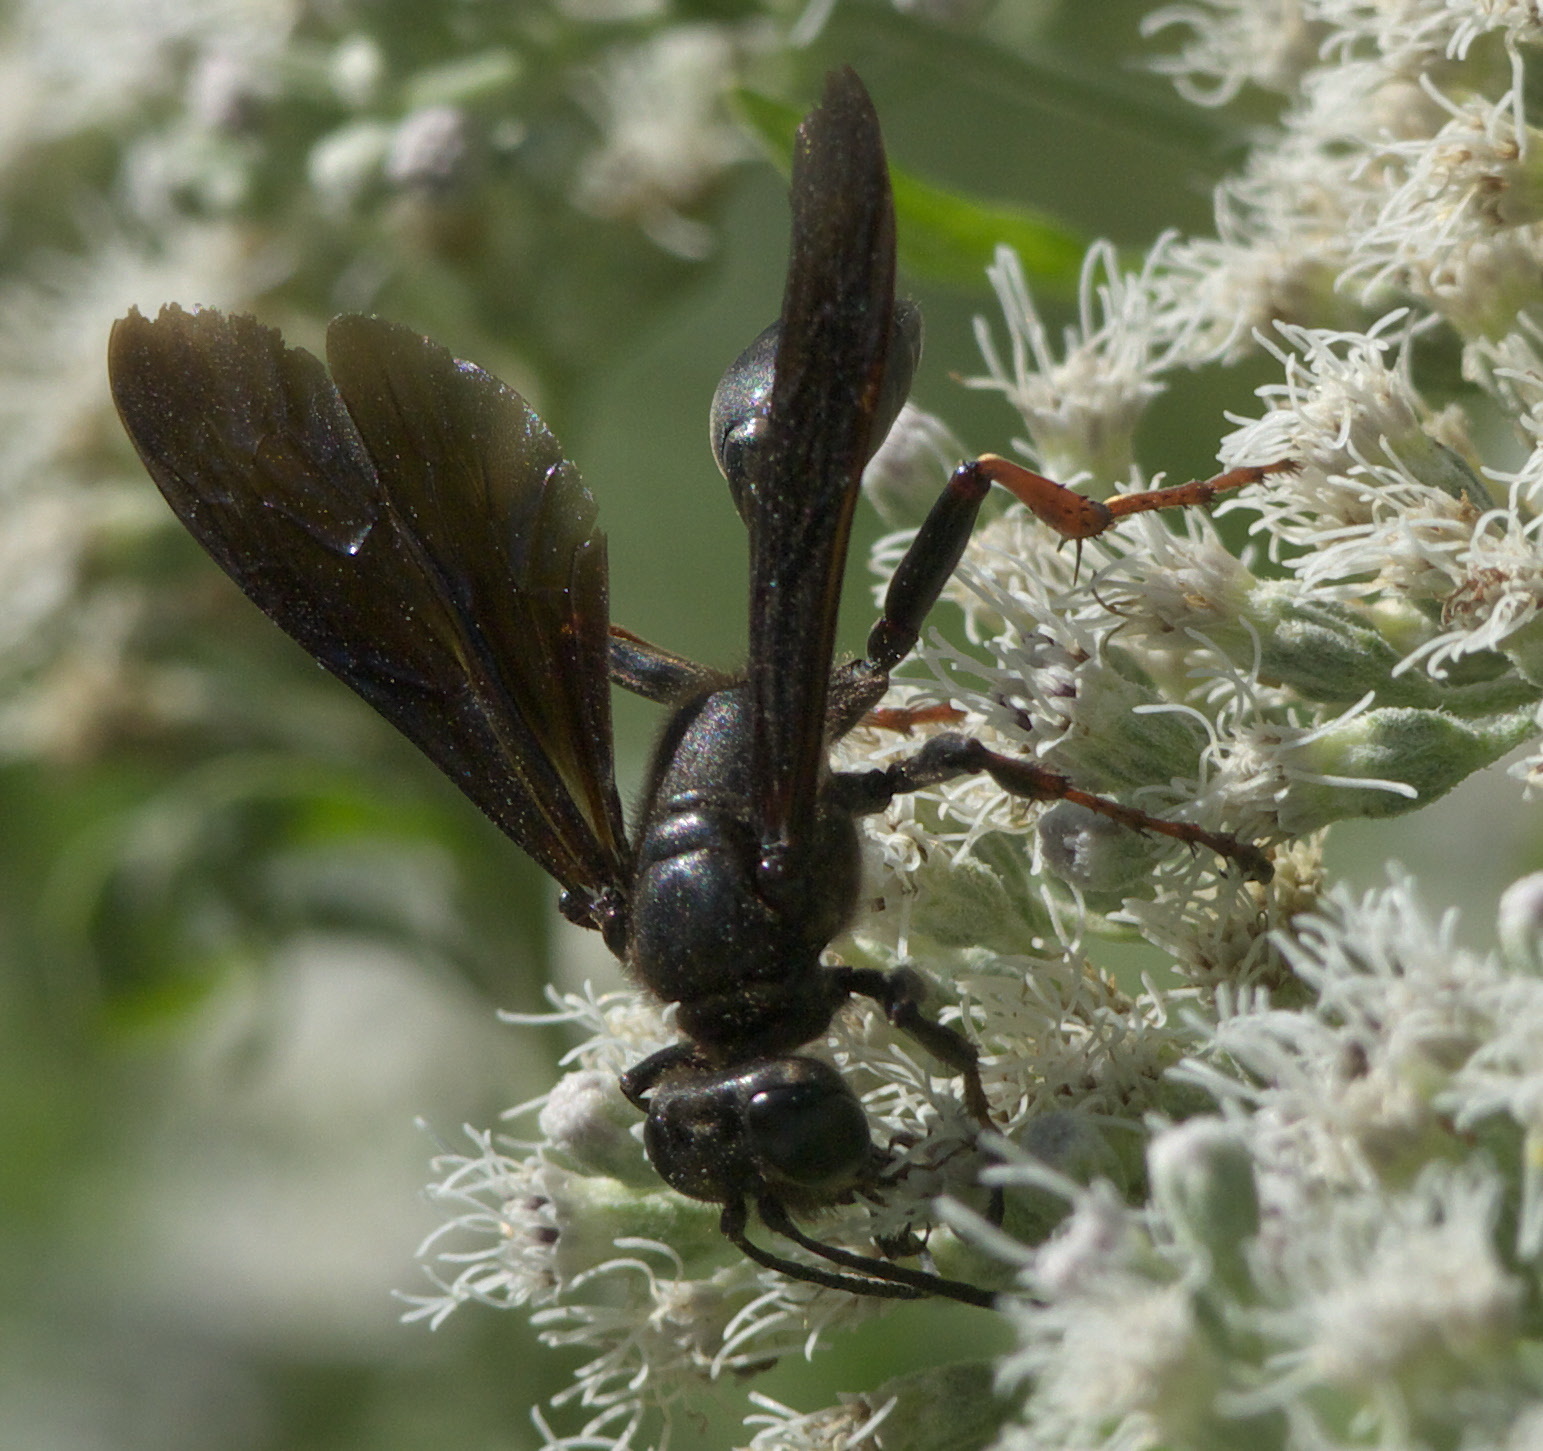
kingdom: Animalia
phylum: Arthropoda
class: Insecta
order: Hymenoptera
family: Sphecidae
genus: Isodontia
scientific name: Isodontia auripes
